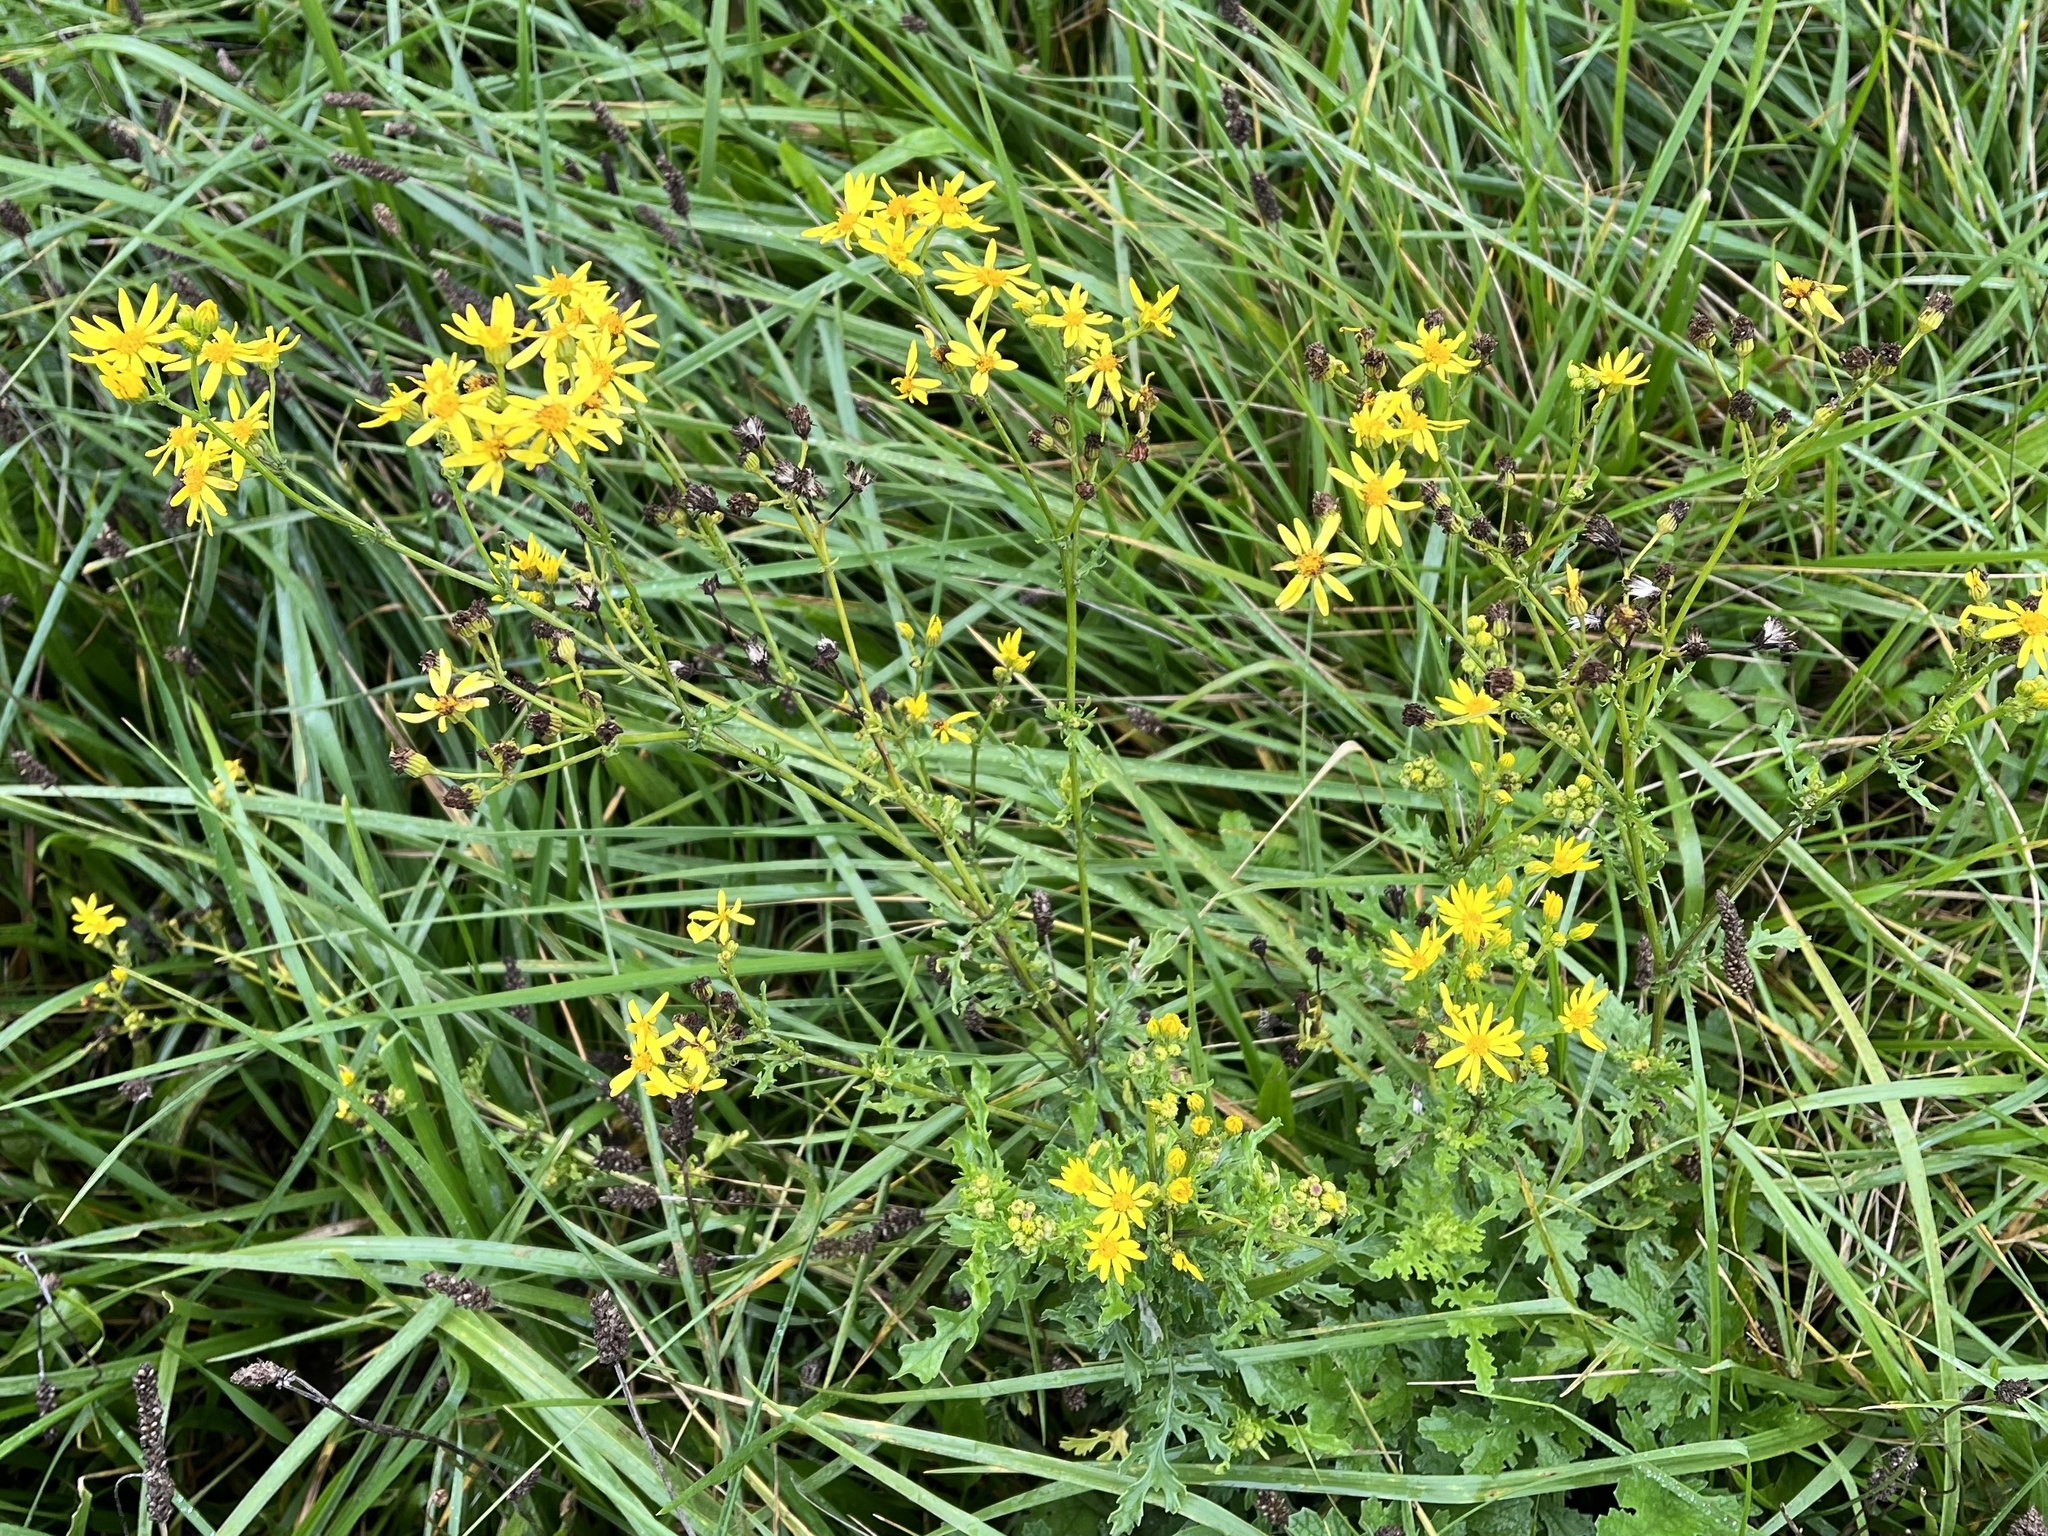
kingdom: Plantae
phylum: Tracheophyta
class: Magnoliopsida
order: Asterales
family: Asteraceae
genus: Jacobaea
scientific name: Jacobaea vulgaris
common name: Stinking willie
